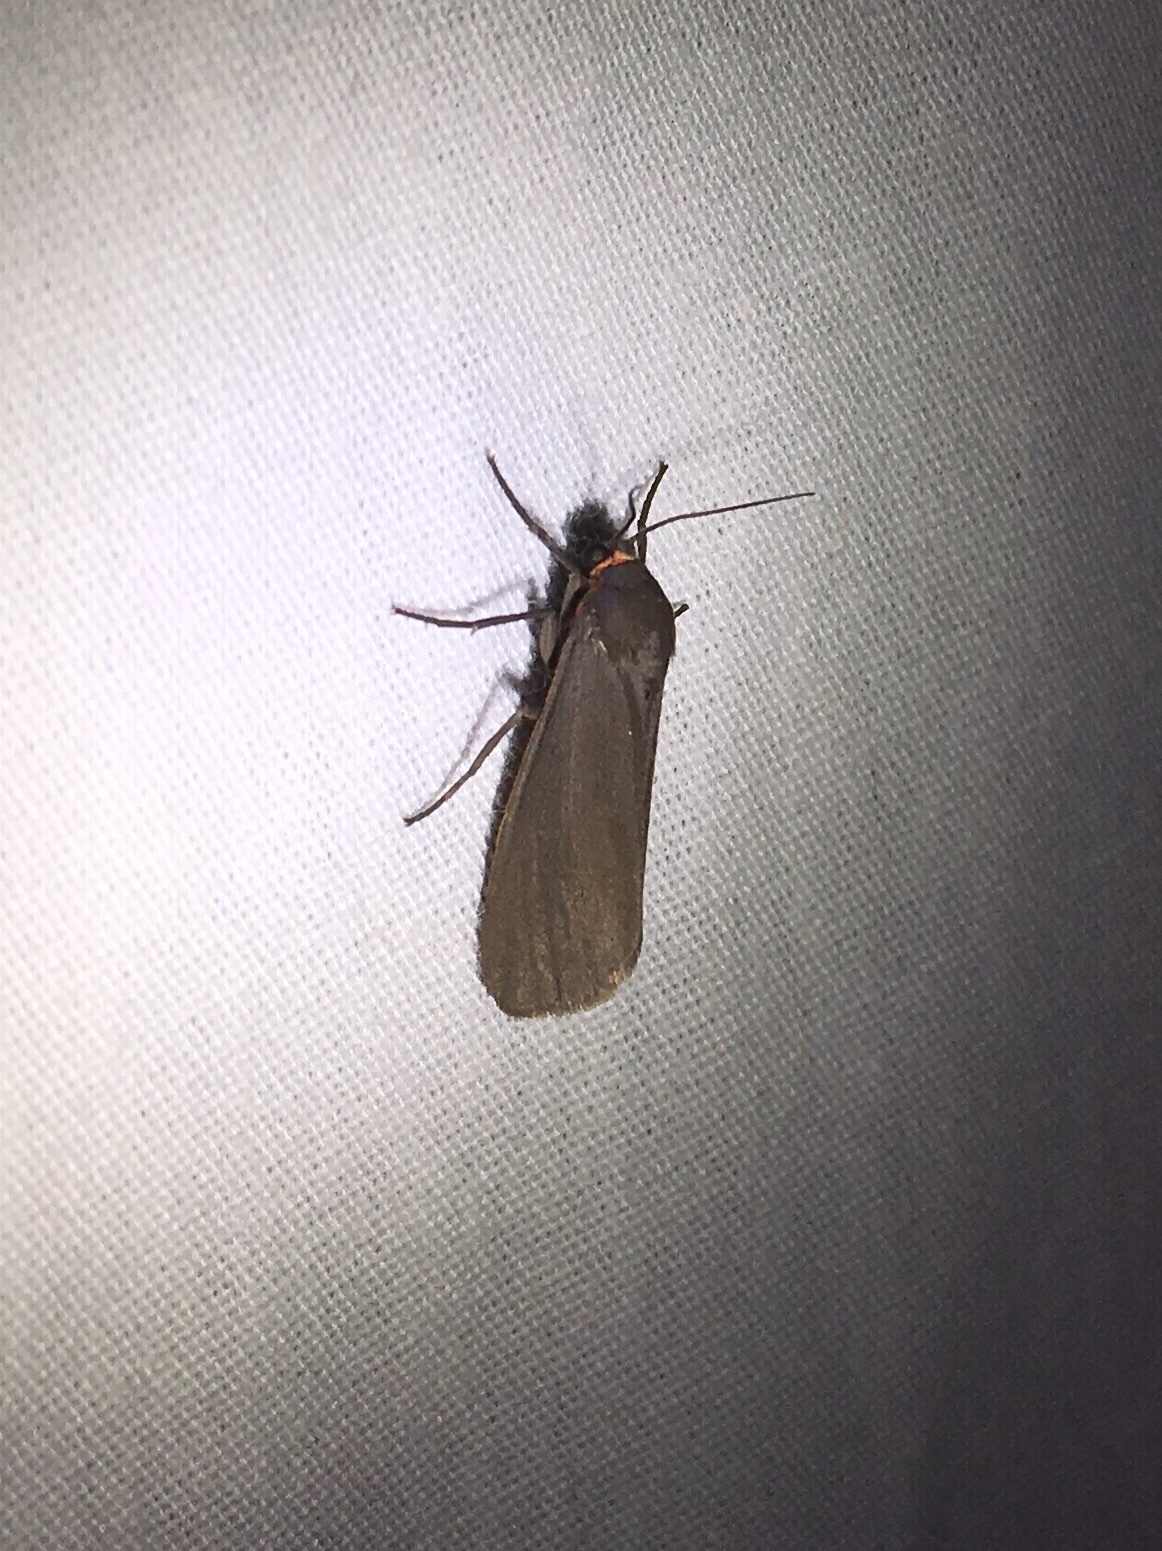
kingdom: Animalia
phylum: Arthropoda
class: Insecta
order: Lepidoptera
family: Erebidae
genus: Virbia
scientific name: Virbia laeta
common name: Joyful holomelina moth
